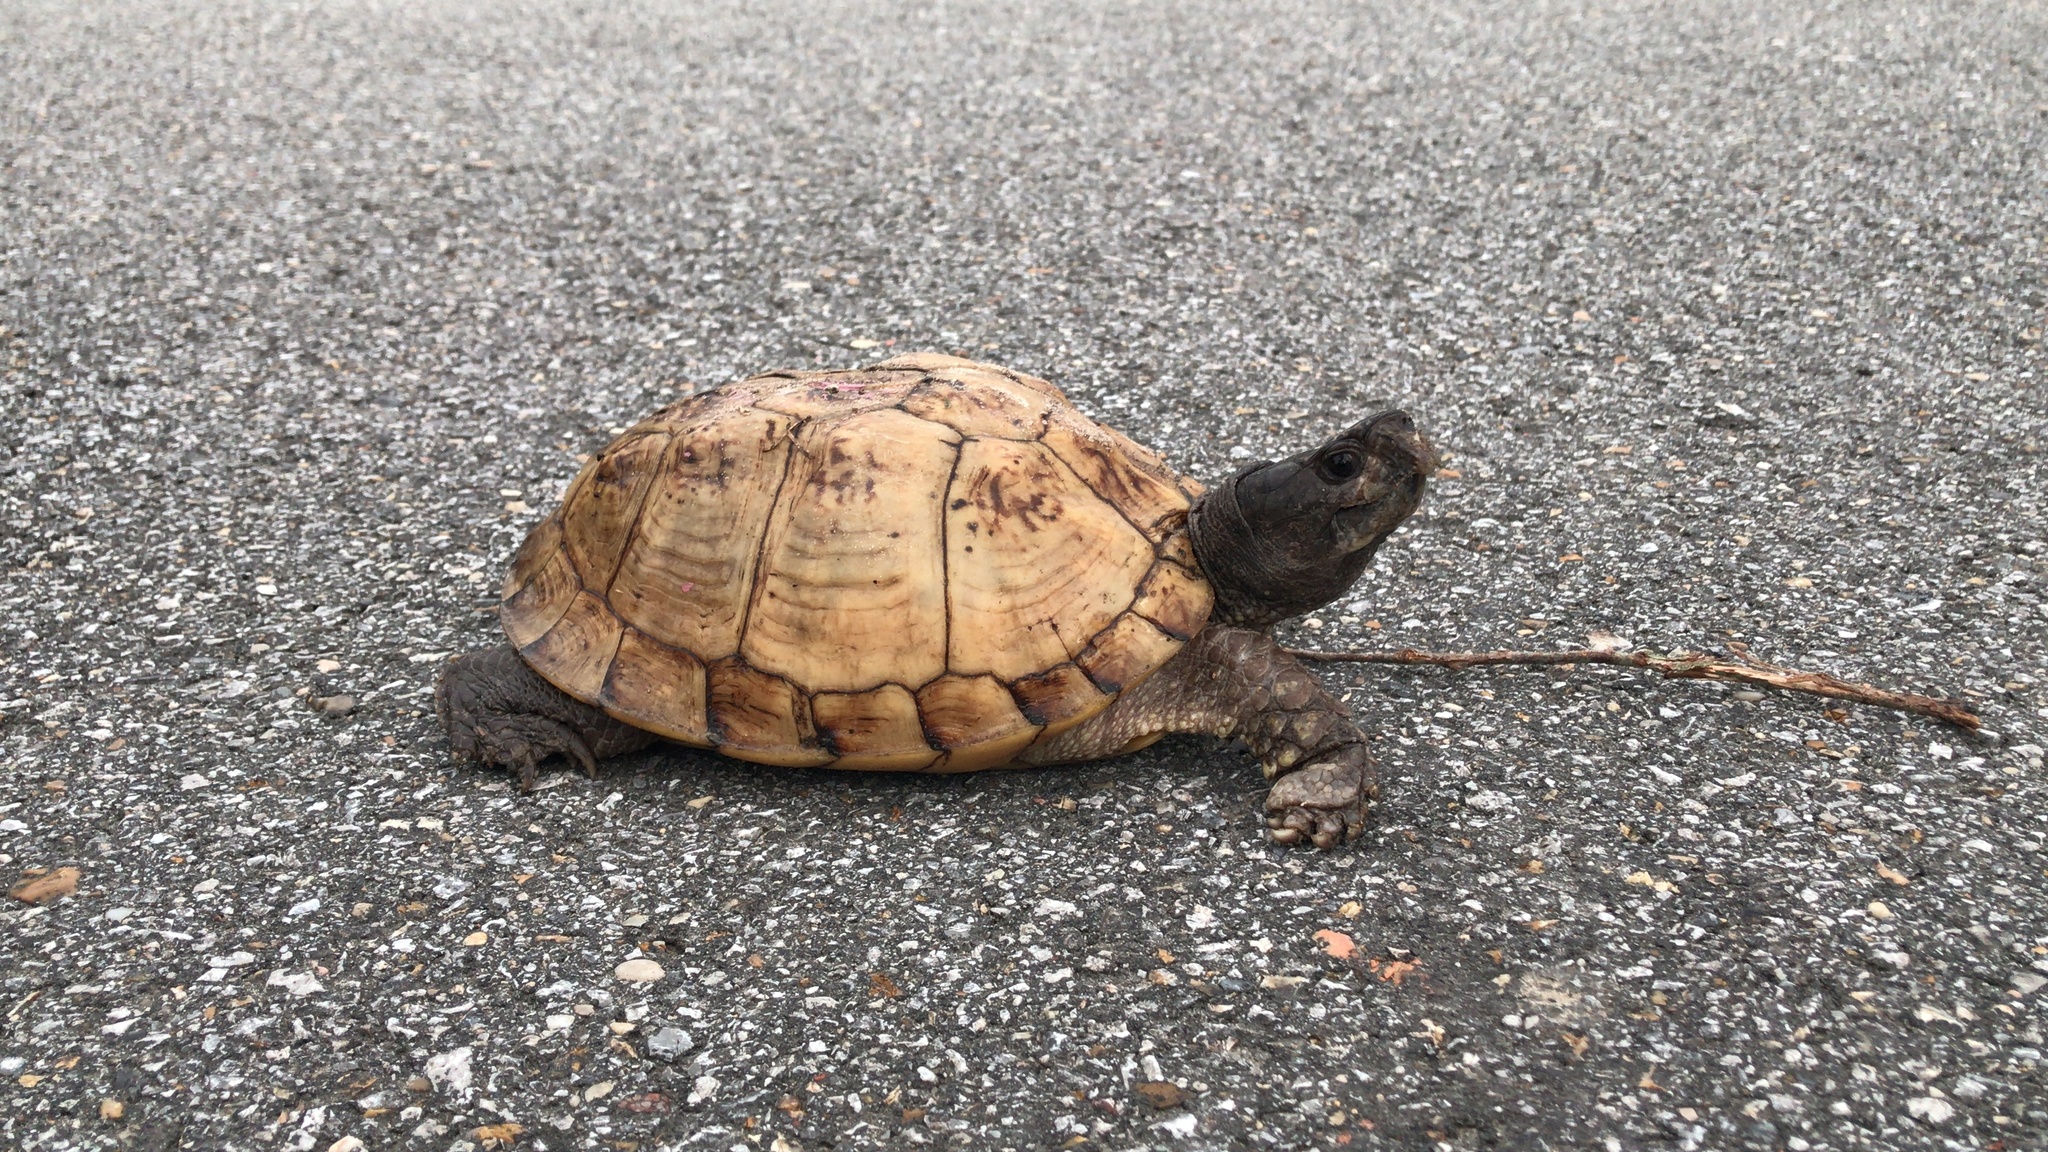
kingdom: Animalia
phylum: Chordata
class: Testudines
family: Emydidae
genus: Terrapene
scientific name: Terrapene carolina
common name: Common box turtle
